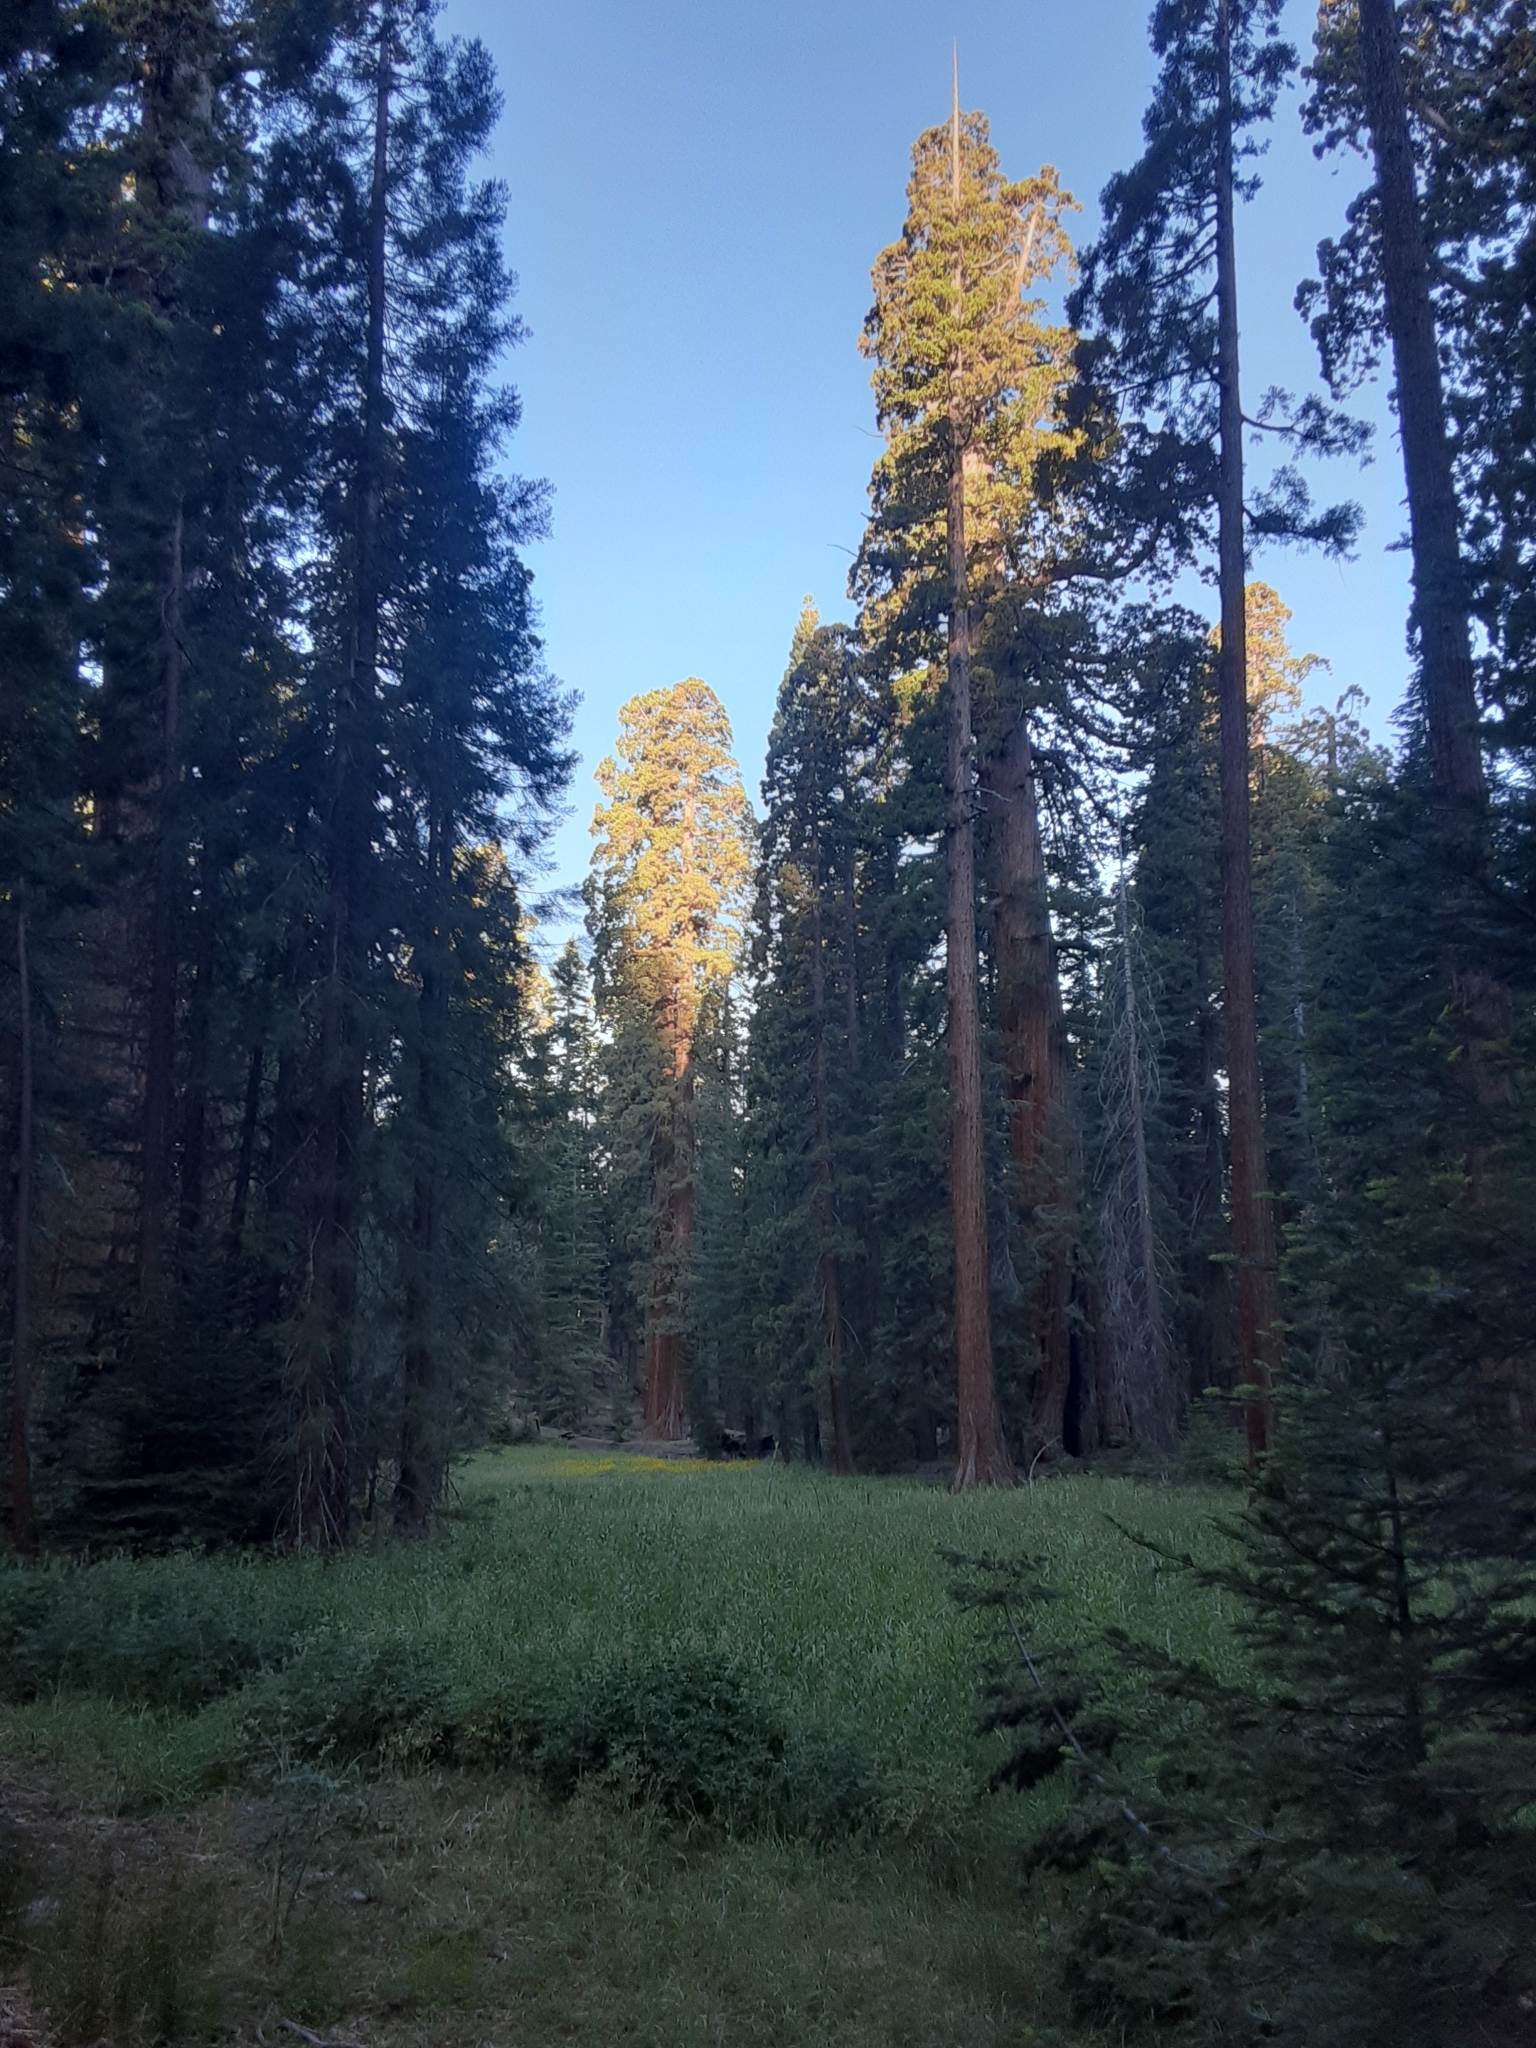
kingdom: Plantae
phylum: Tracheophyta
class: Pinopsida
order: Pinales
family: Cupressaceae
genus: Sequoiadendron
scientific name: Sequoiadendron giganteum
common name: Wellingtonia
